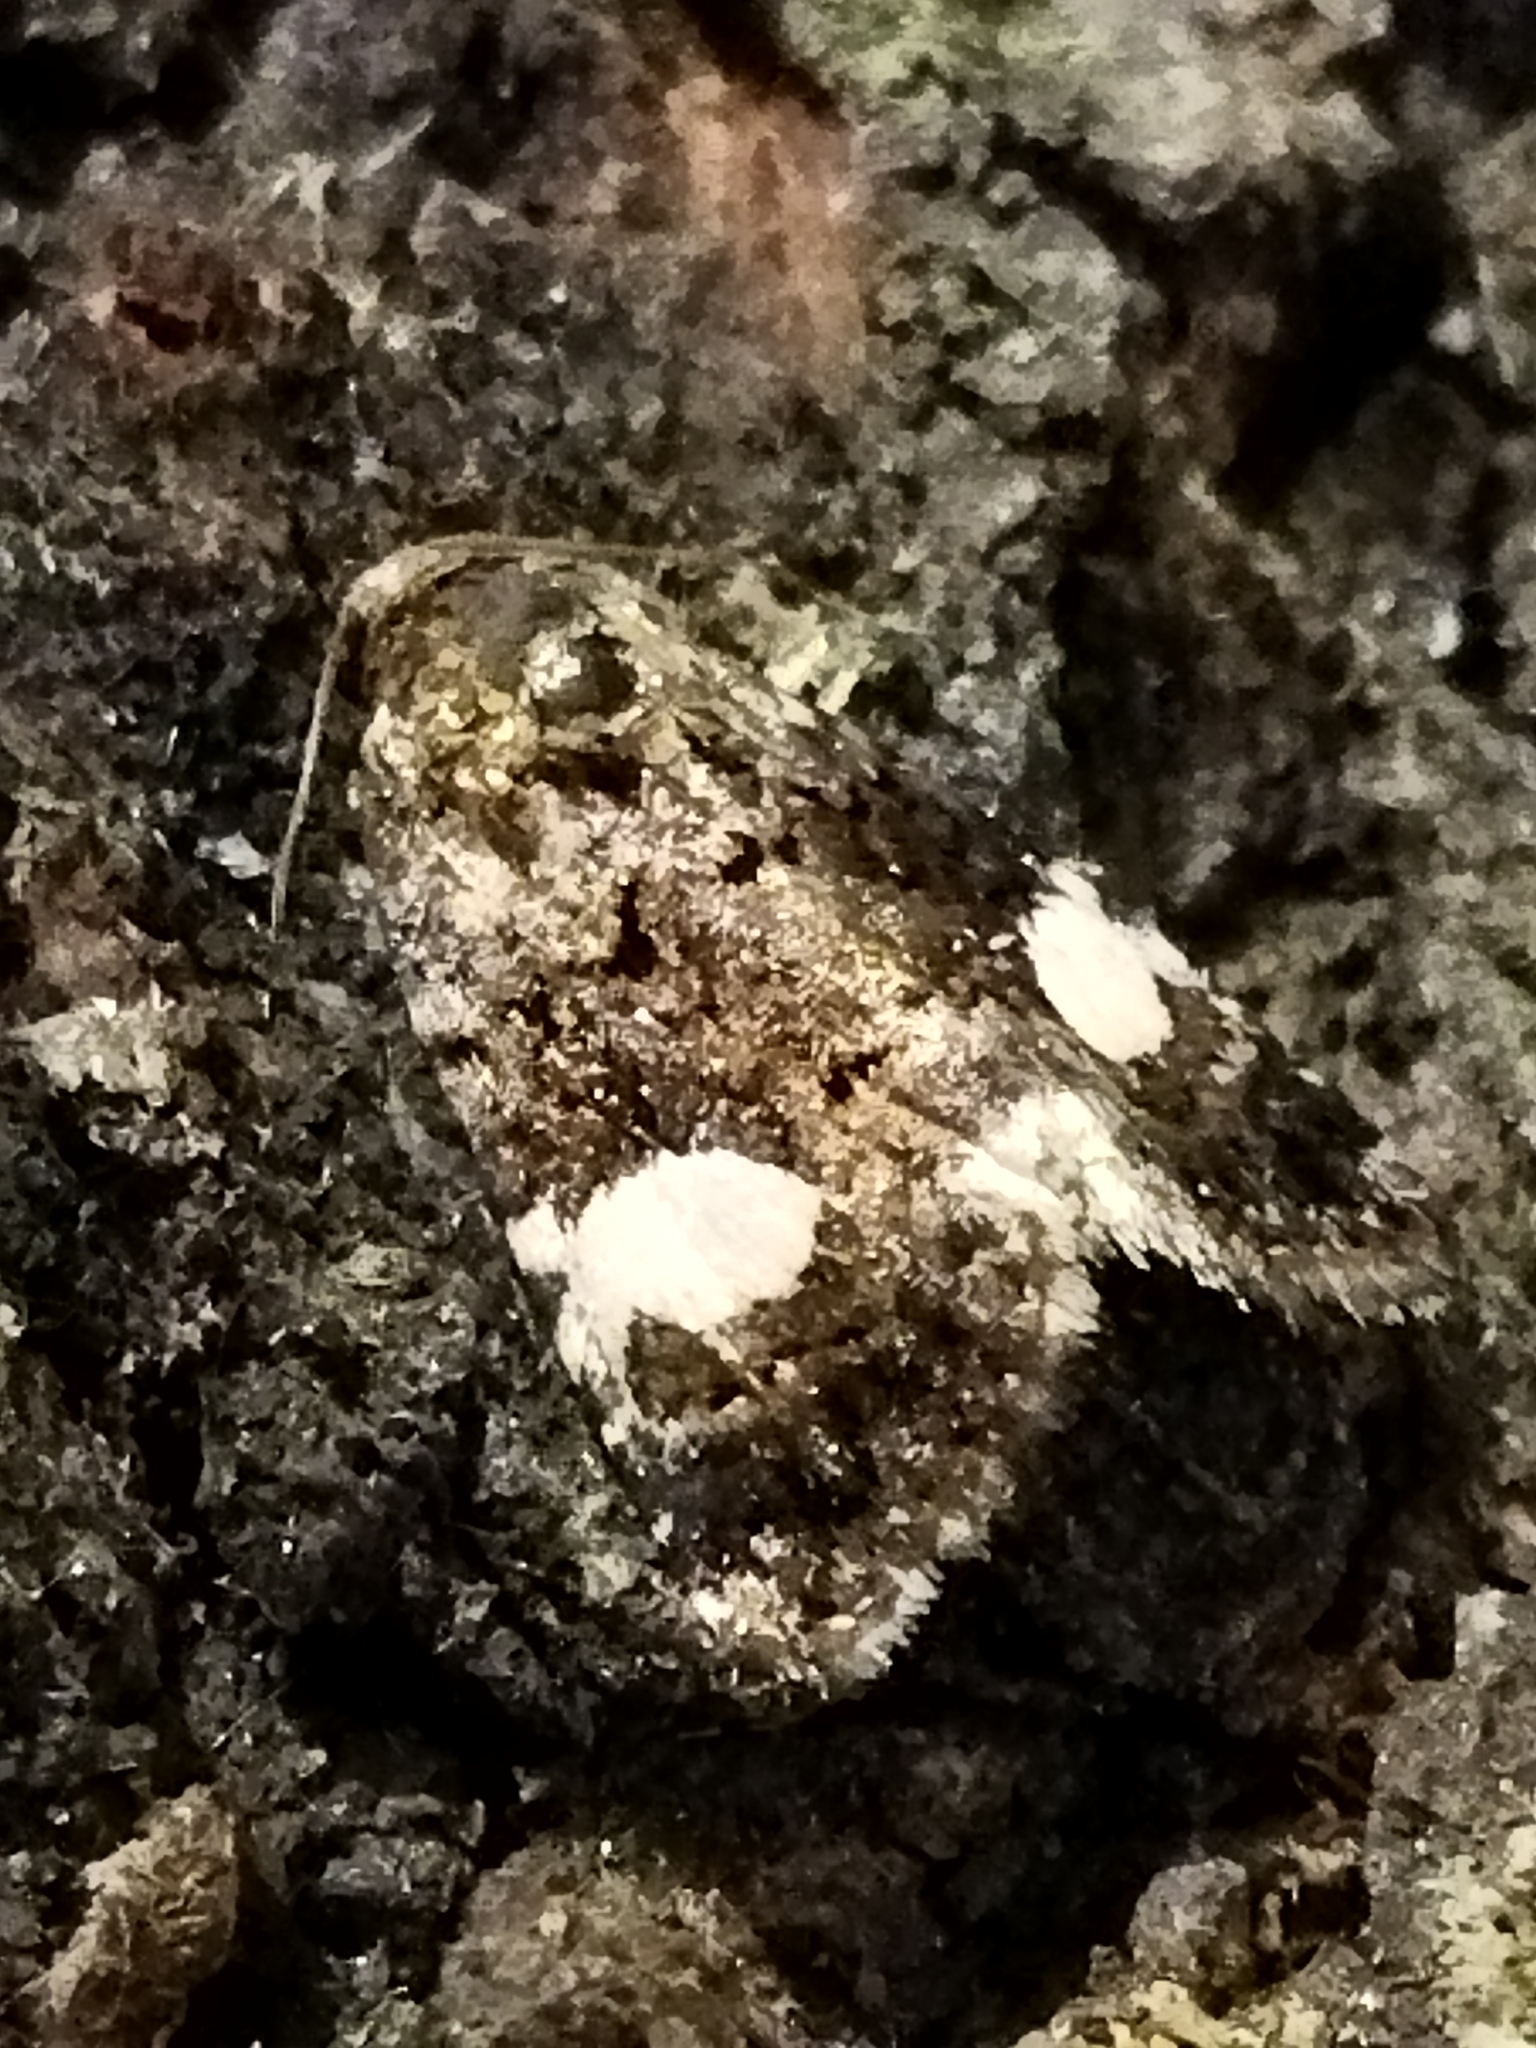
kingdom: Animalia
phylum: Arthropoda
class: Insecta
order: Lepidoptera
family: Erebidae
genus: Tyta
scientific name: Tyta luctuosa
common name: Four-spotted
